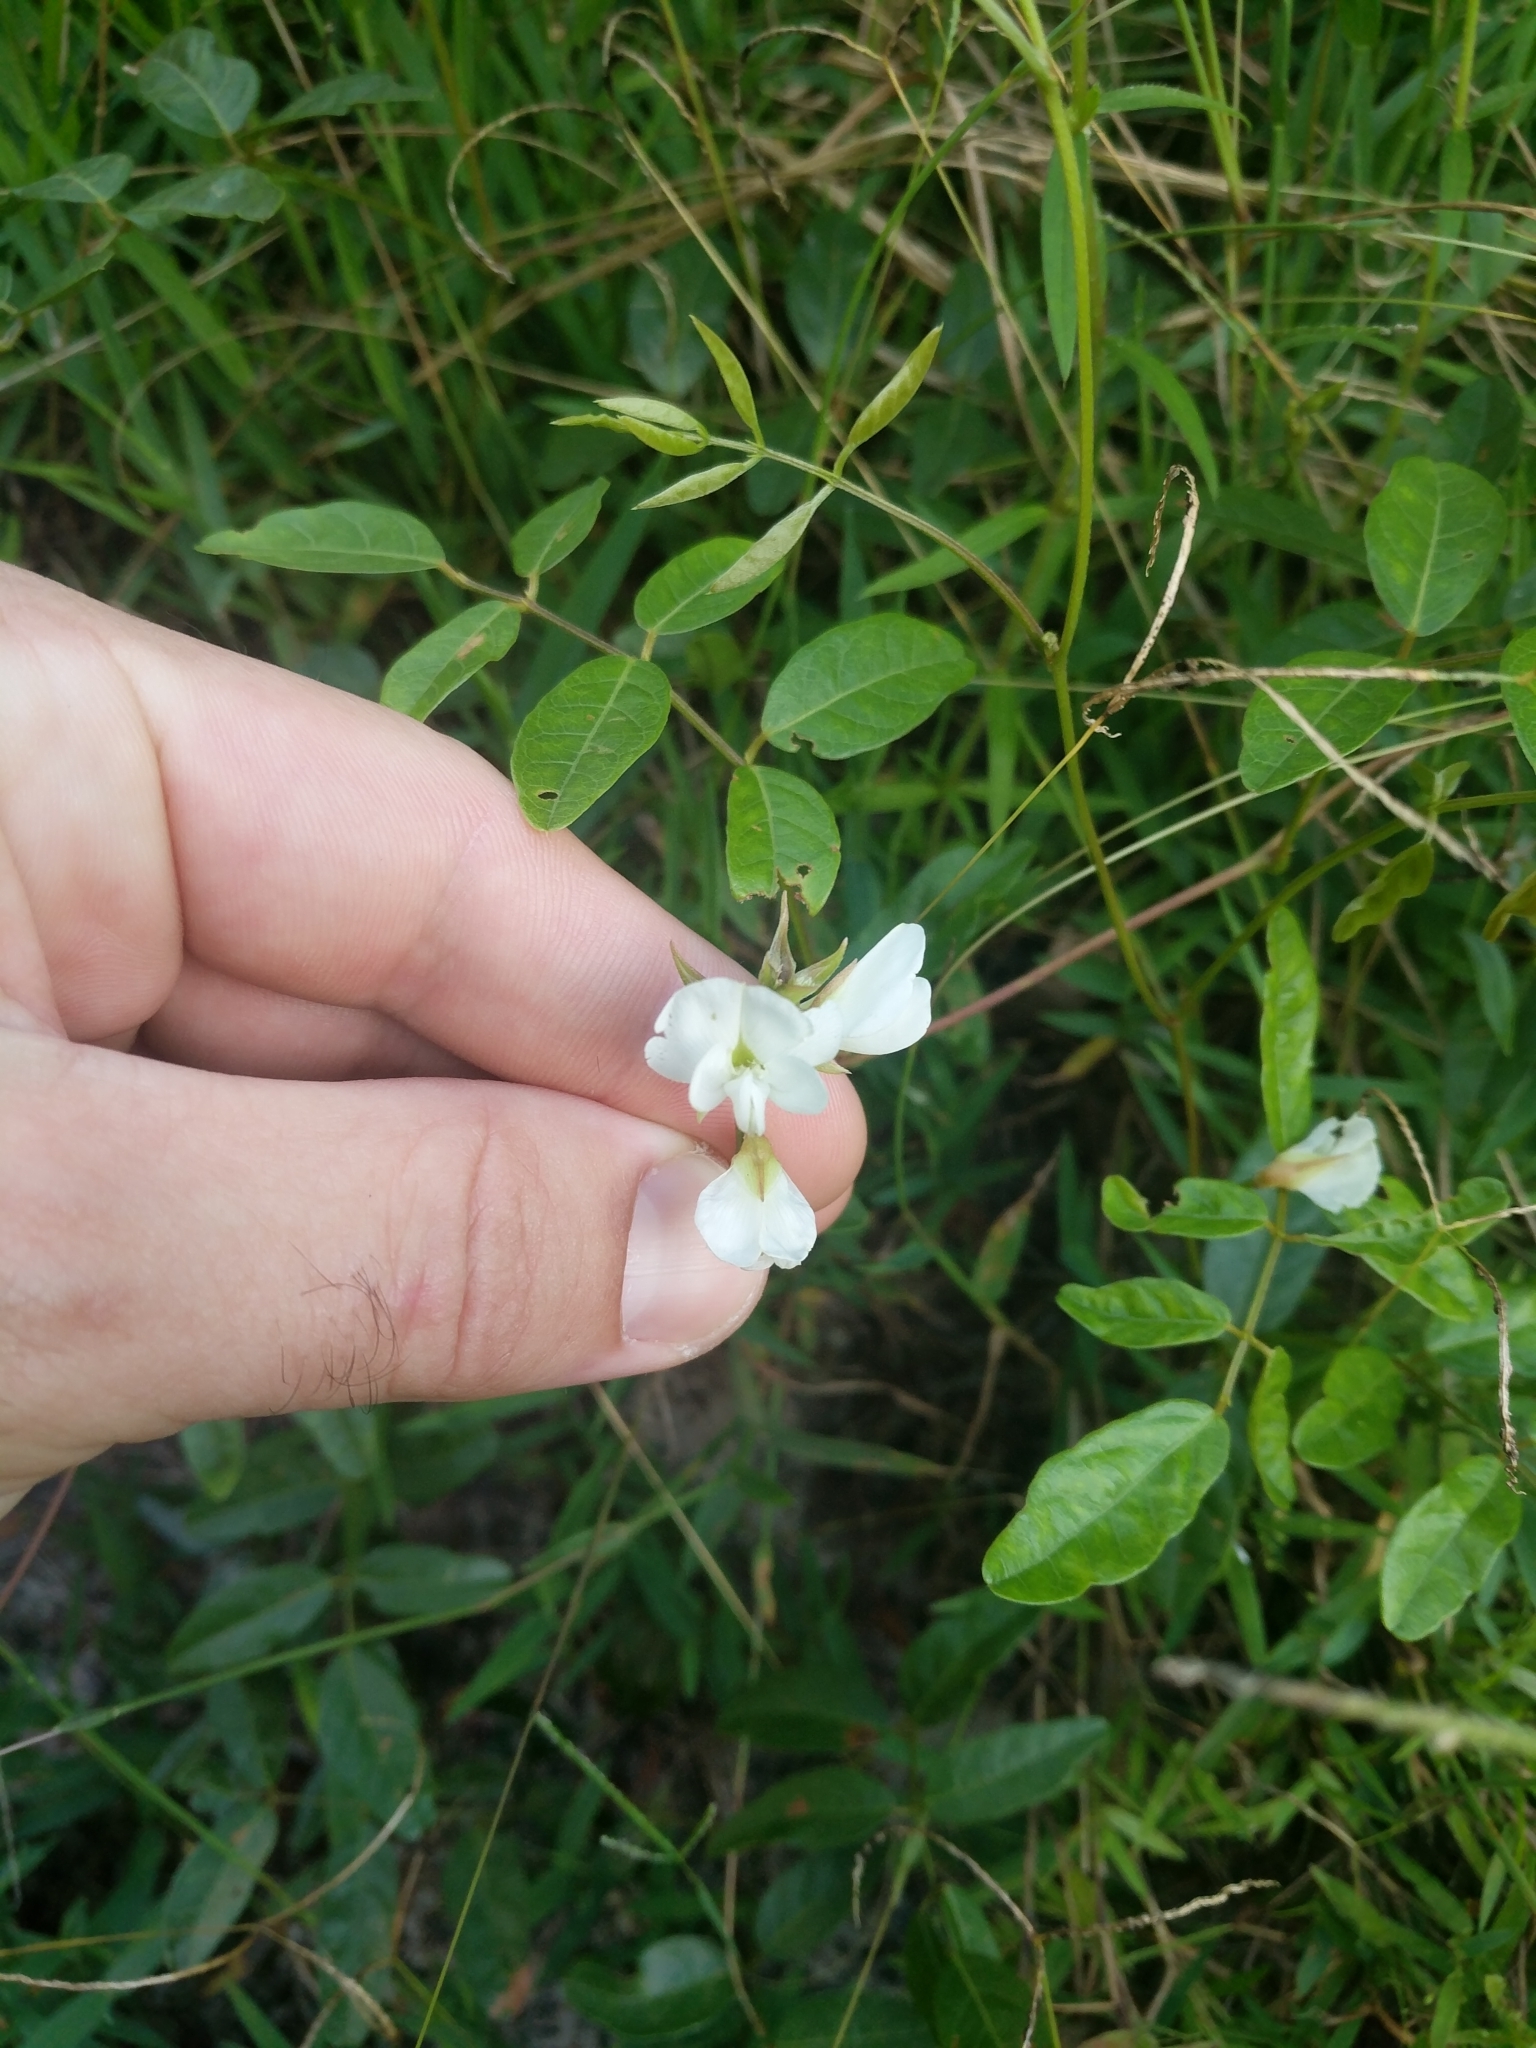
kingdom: Plantae
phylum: Tracheophyta
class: Magnoliopsida
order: Fabales
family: Fabaceae
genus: Galactia
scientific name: Galactia elliottii
